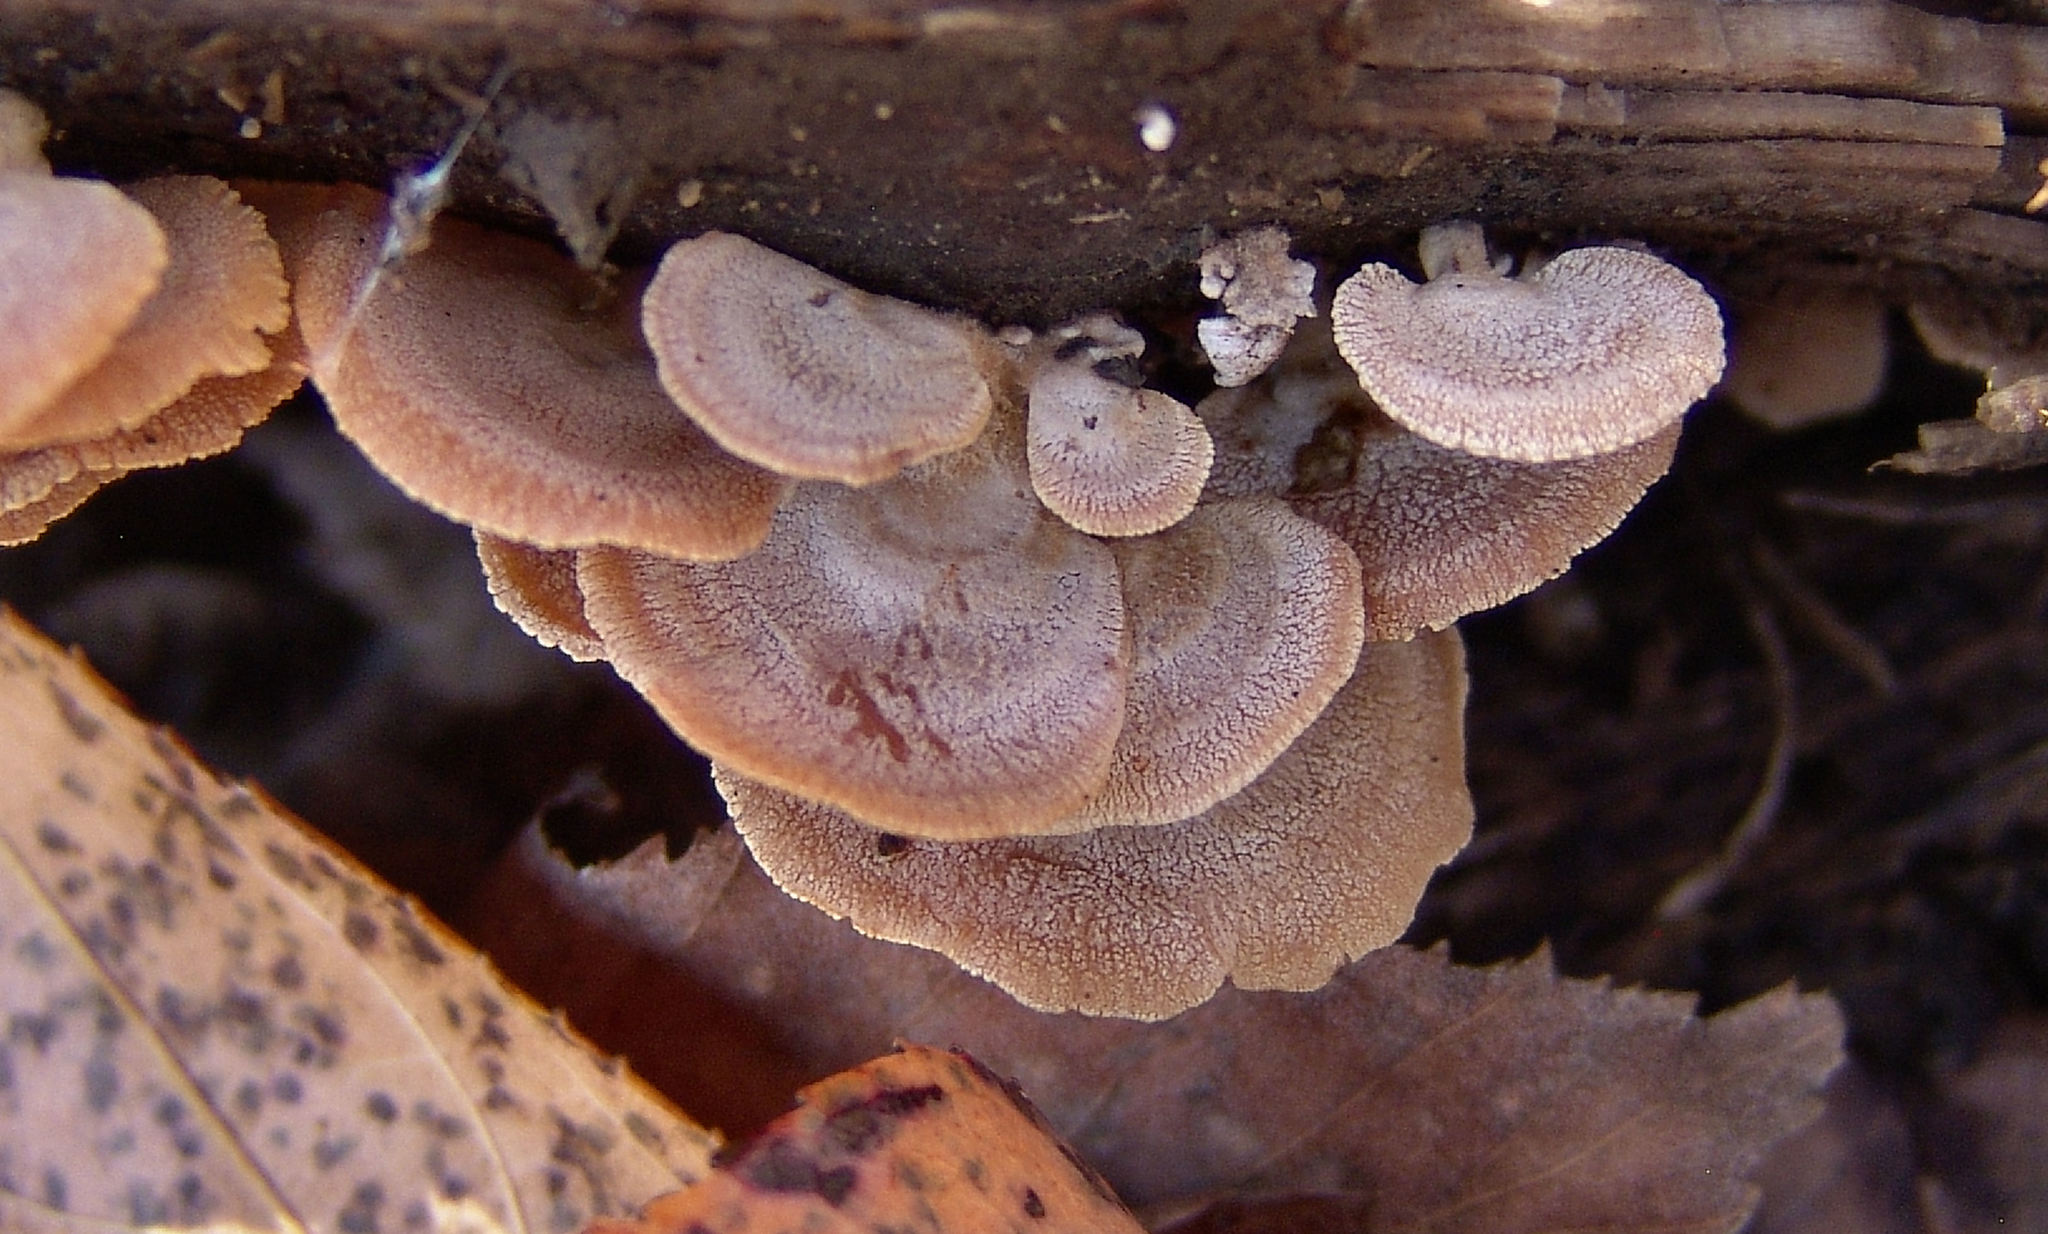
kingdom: Fungi
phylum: Basidiomycota
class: Agaricomycetes
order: Agaricales
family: Mycenaceae
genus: Panellus
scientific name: Panellus stipticus
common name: Bitter oysterling
